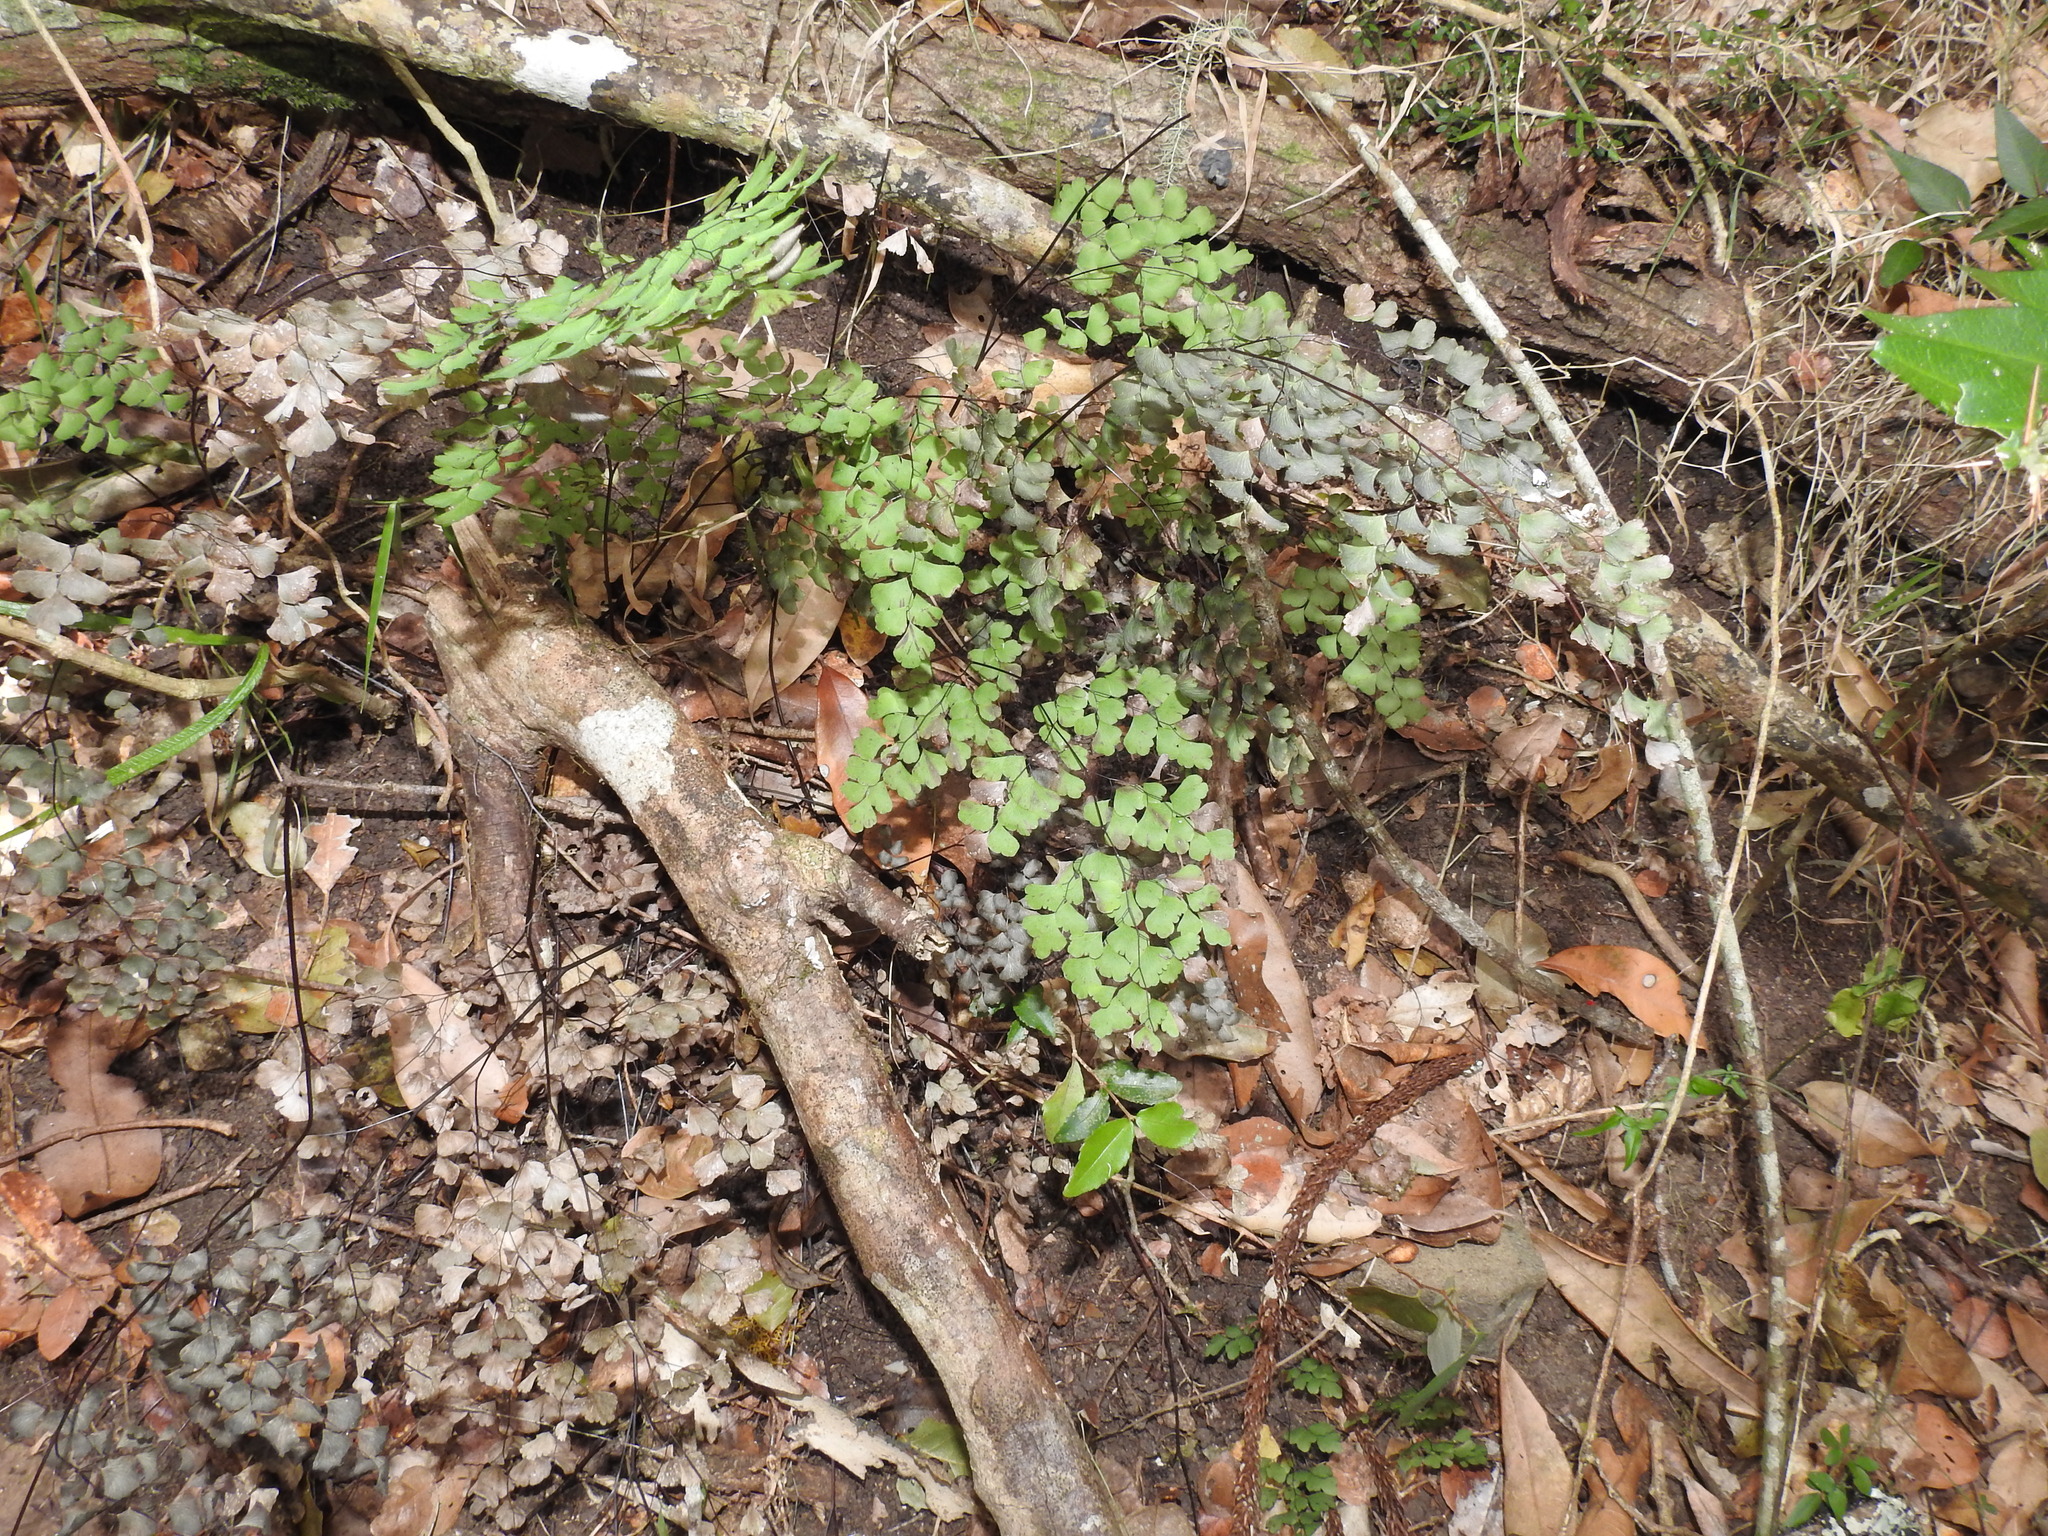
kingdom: Plantae
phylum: Tracheophyta
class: Polypodiopsida
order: Polypodiales
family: Pteridaceae
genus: Adiantum
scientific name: Adiantum atroviride
